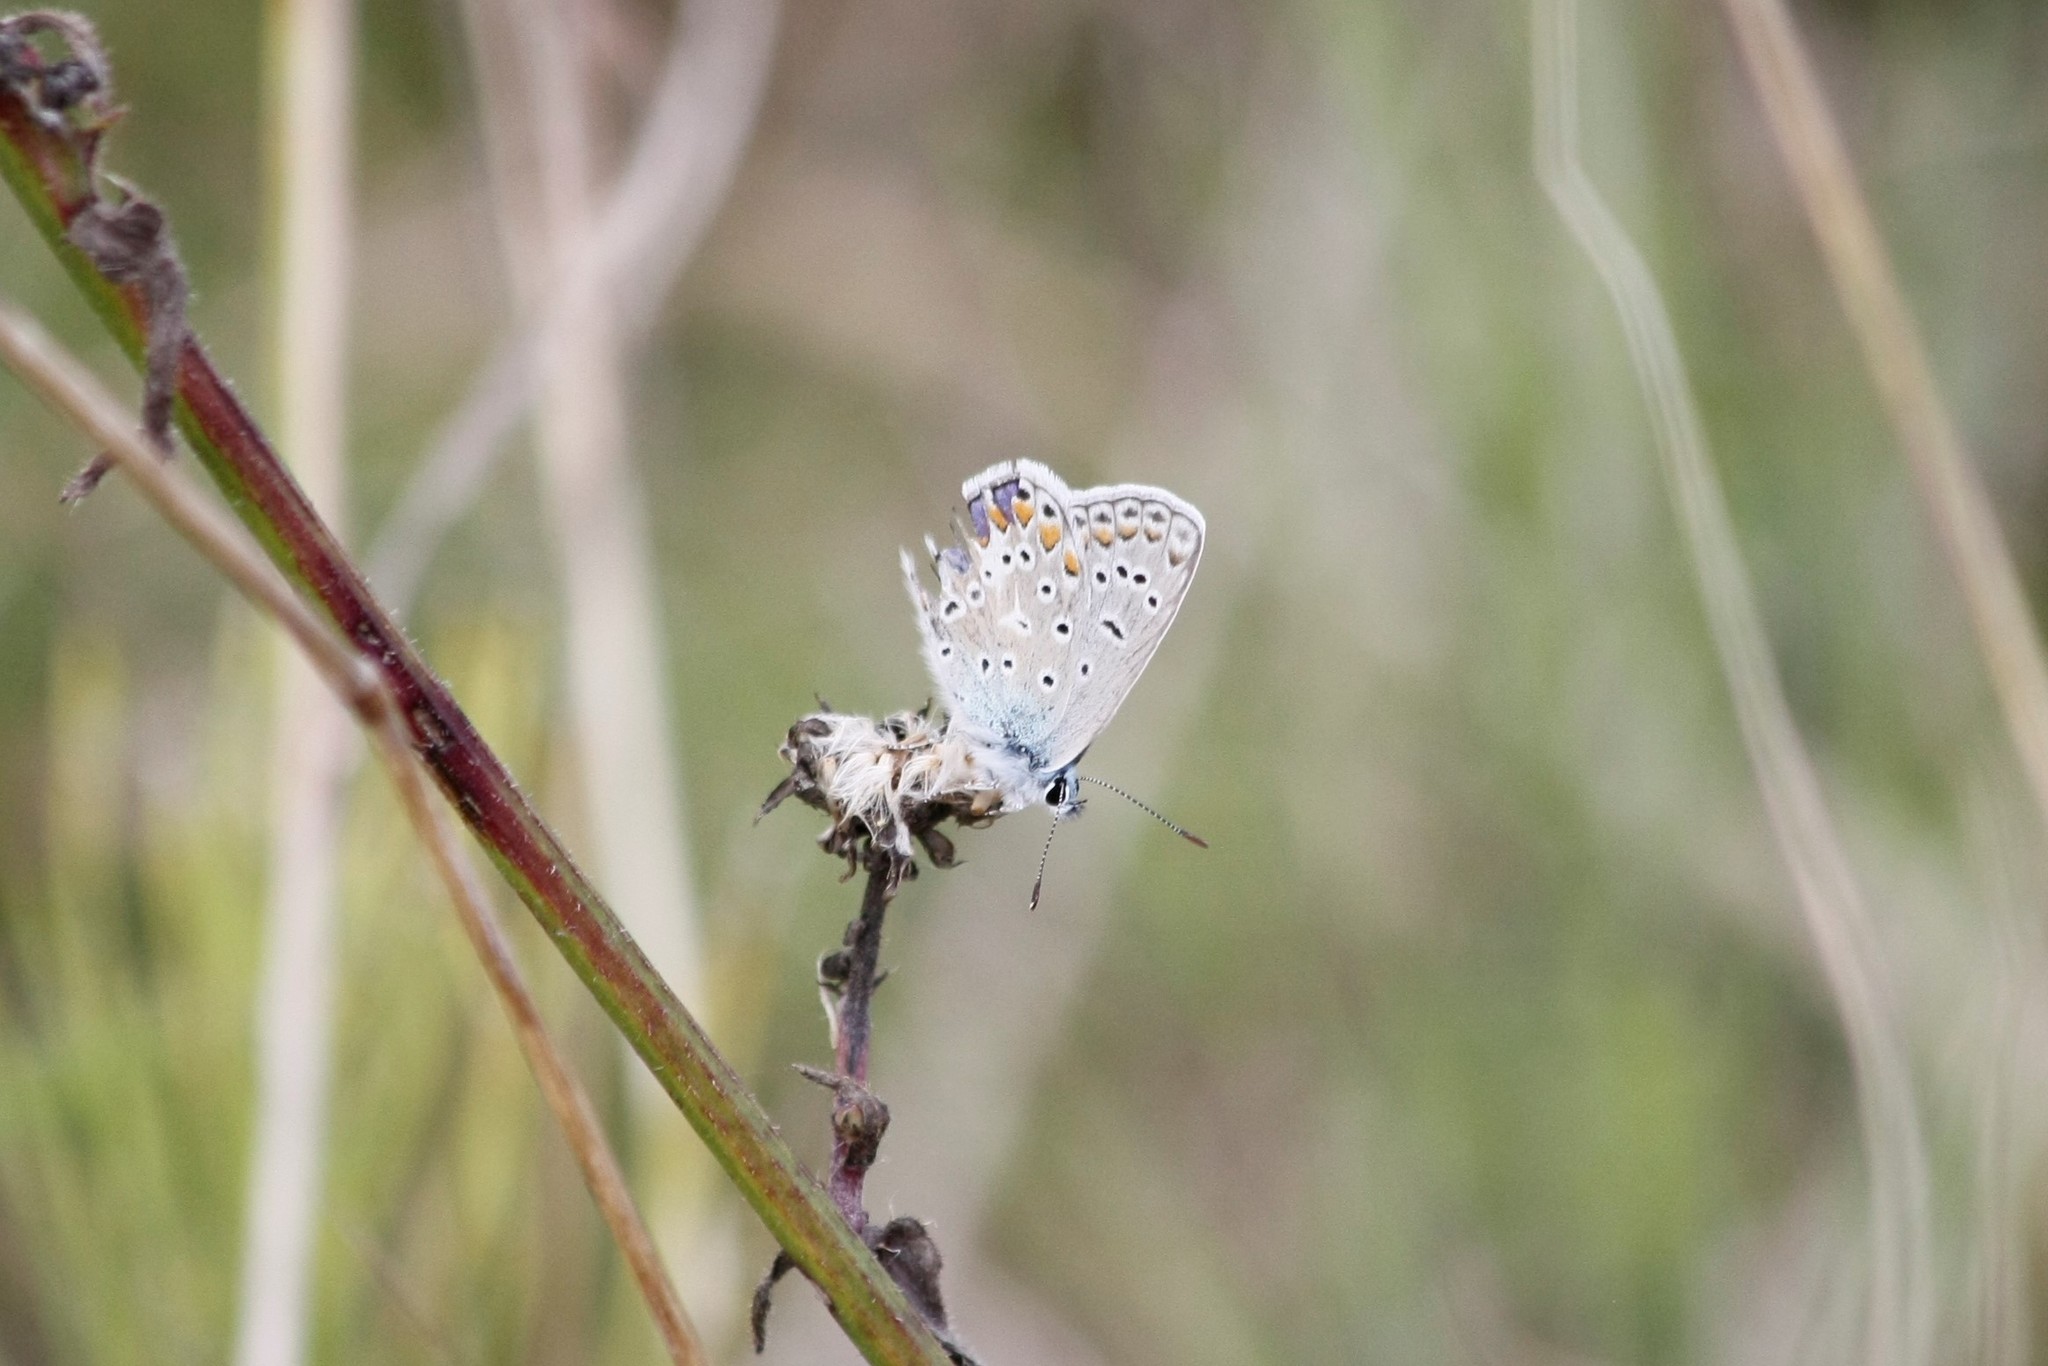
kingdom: Animalia
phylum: Arthropoda
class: Insecta
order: Lepidoptera
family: Lycaenidae
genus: Polyommatus
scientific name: Polyommatus icarus
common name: Common blue
